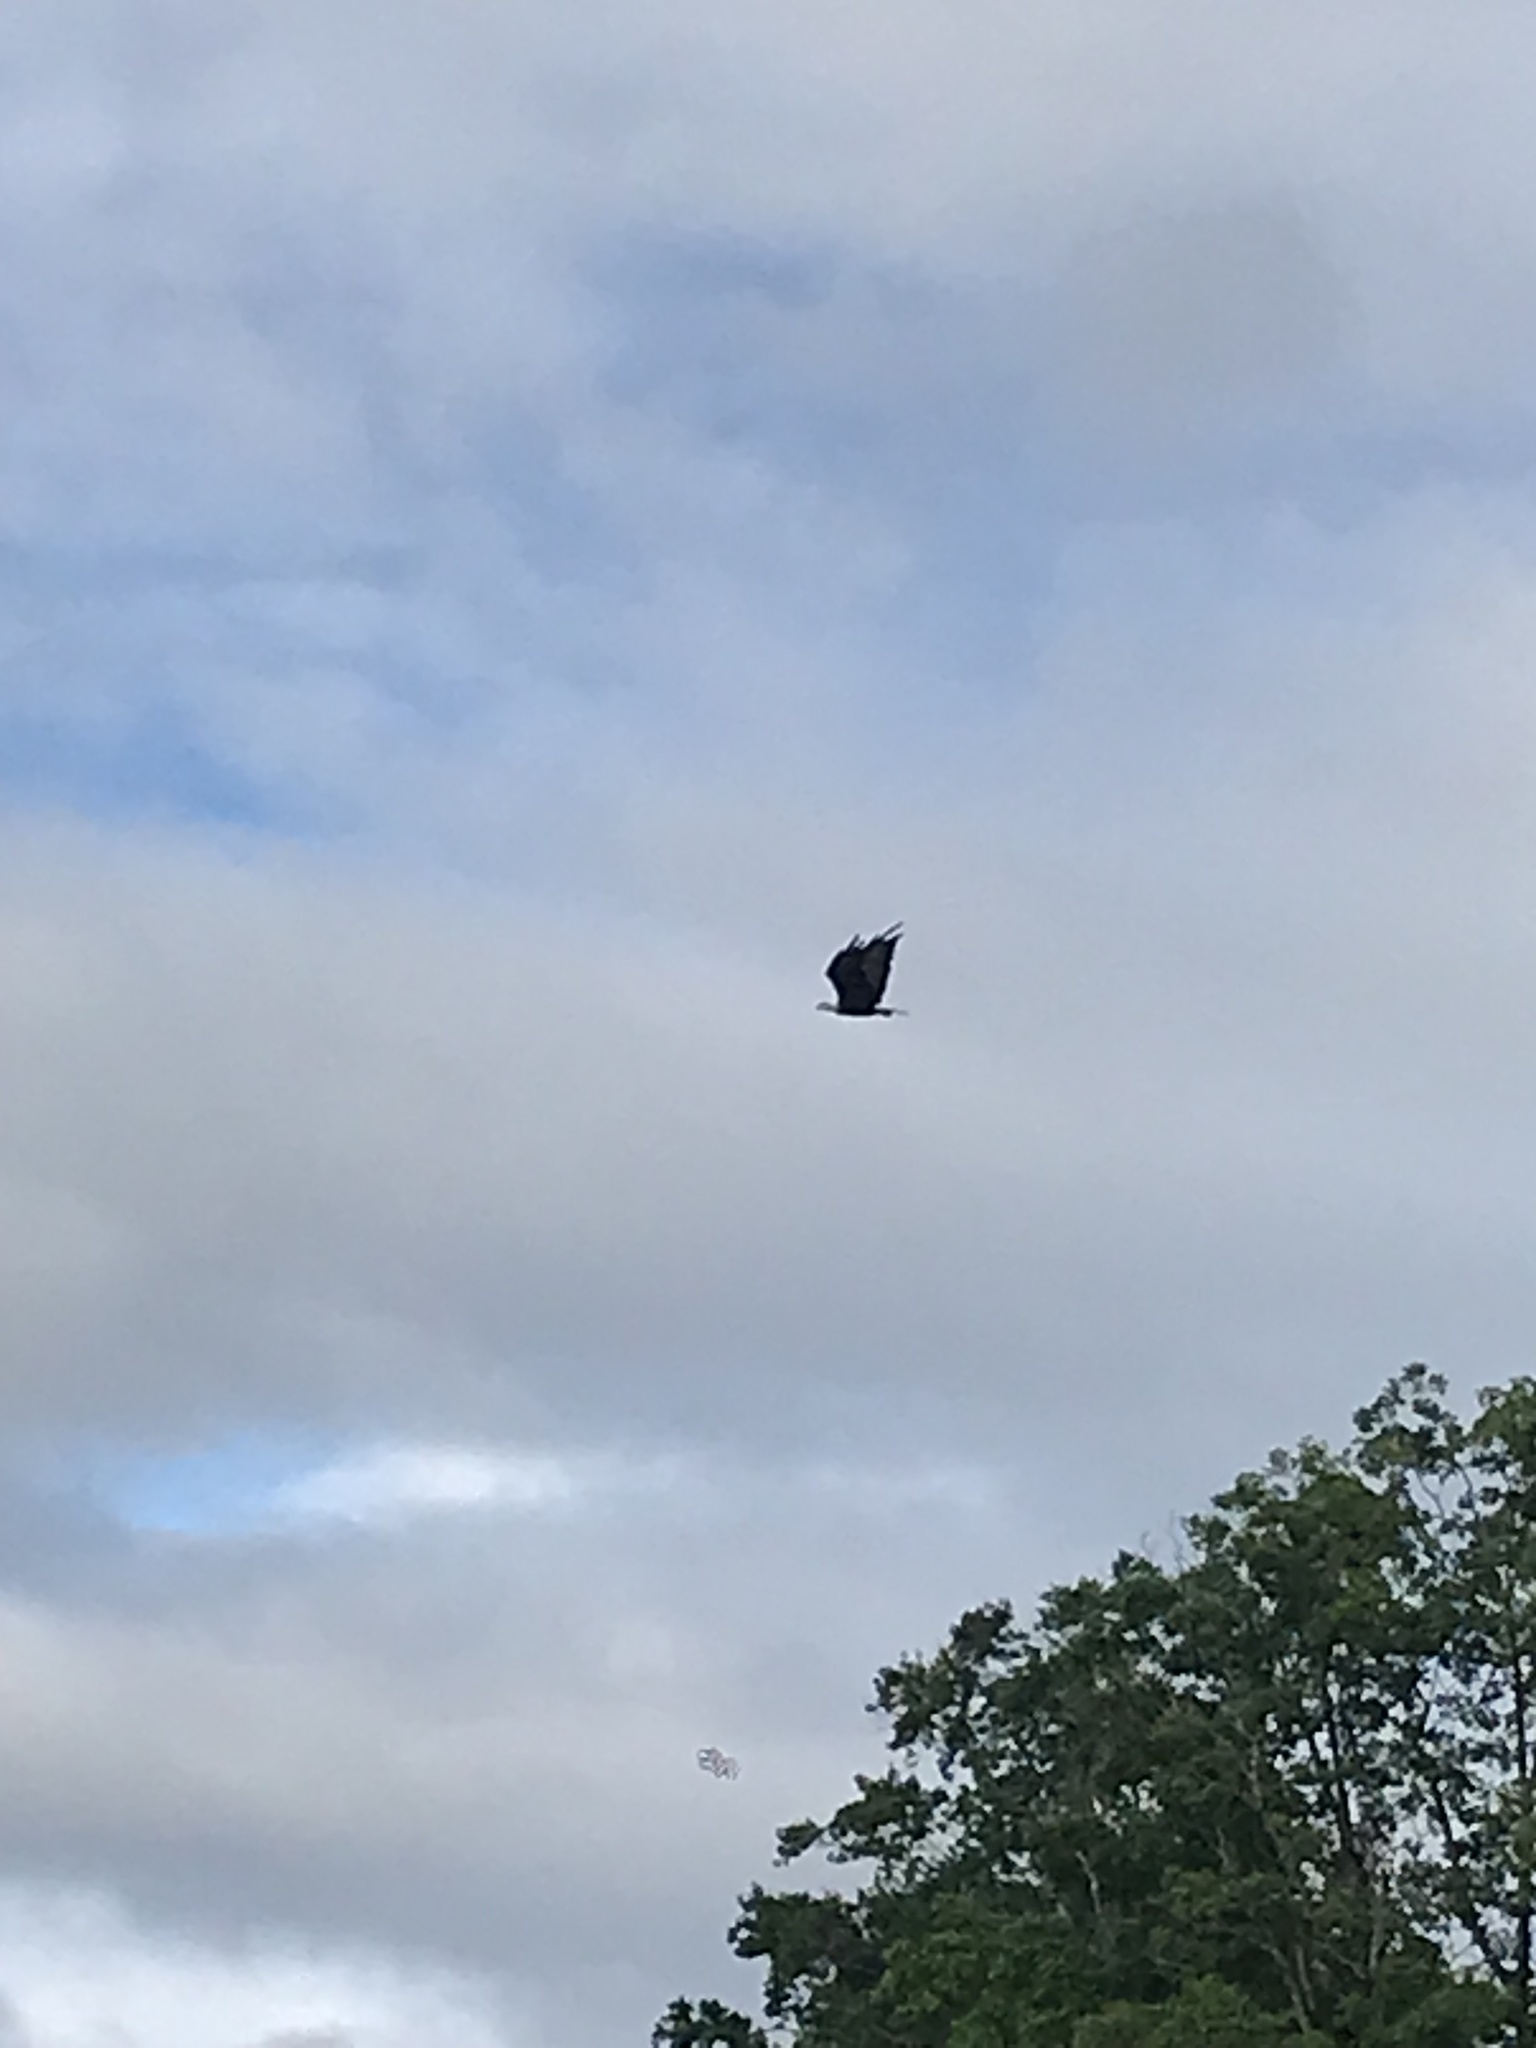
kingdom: Animalia
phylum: Chordata
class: Aves
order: Accipitriformes
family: Accipitridae
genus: Haliaeetus
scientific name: Haliaeetus leucocephalus
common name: Bald eagle
